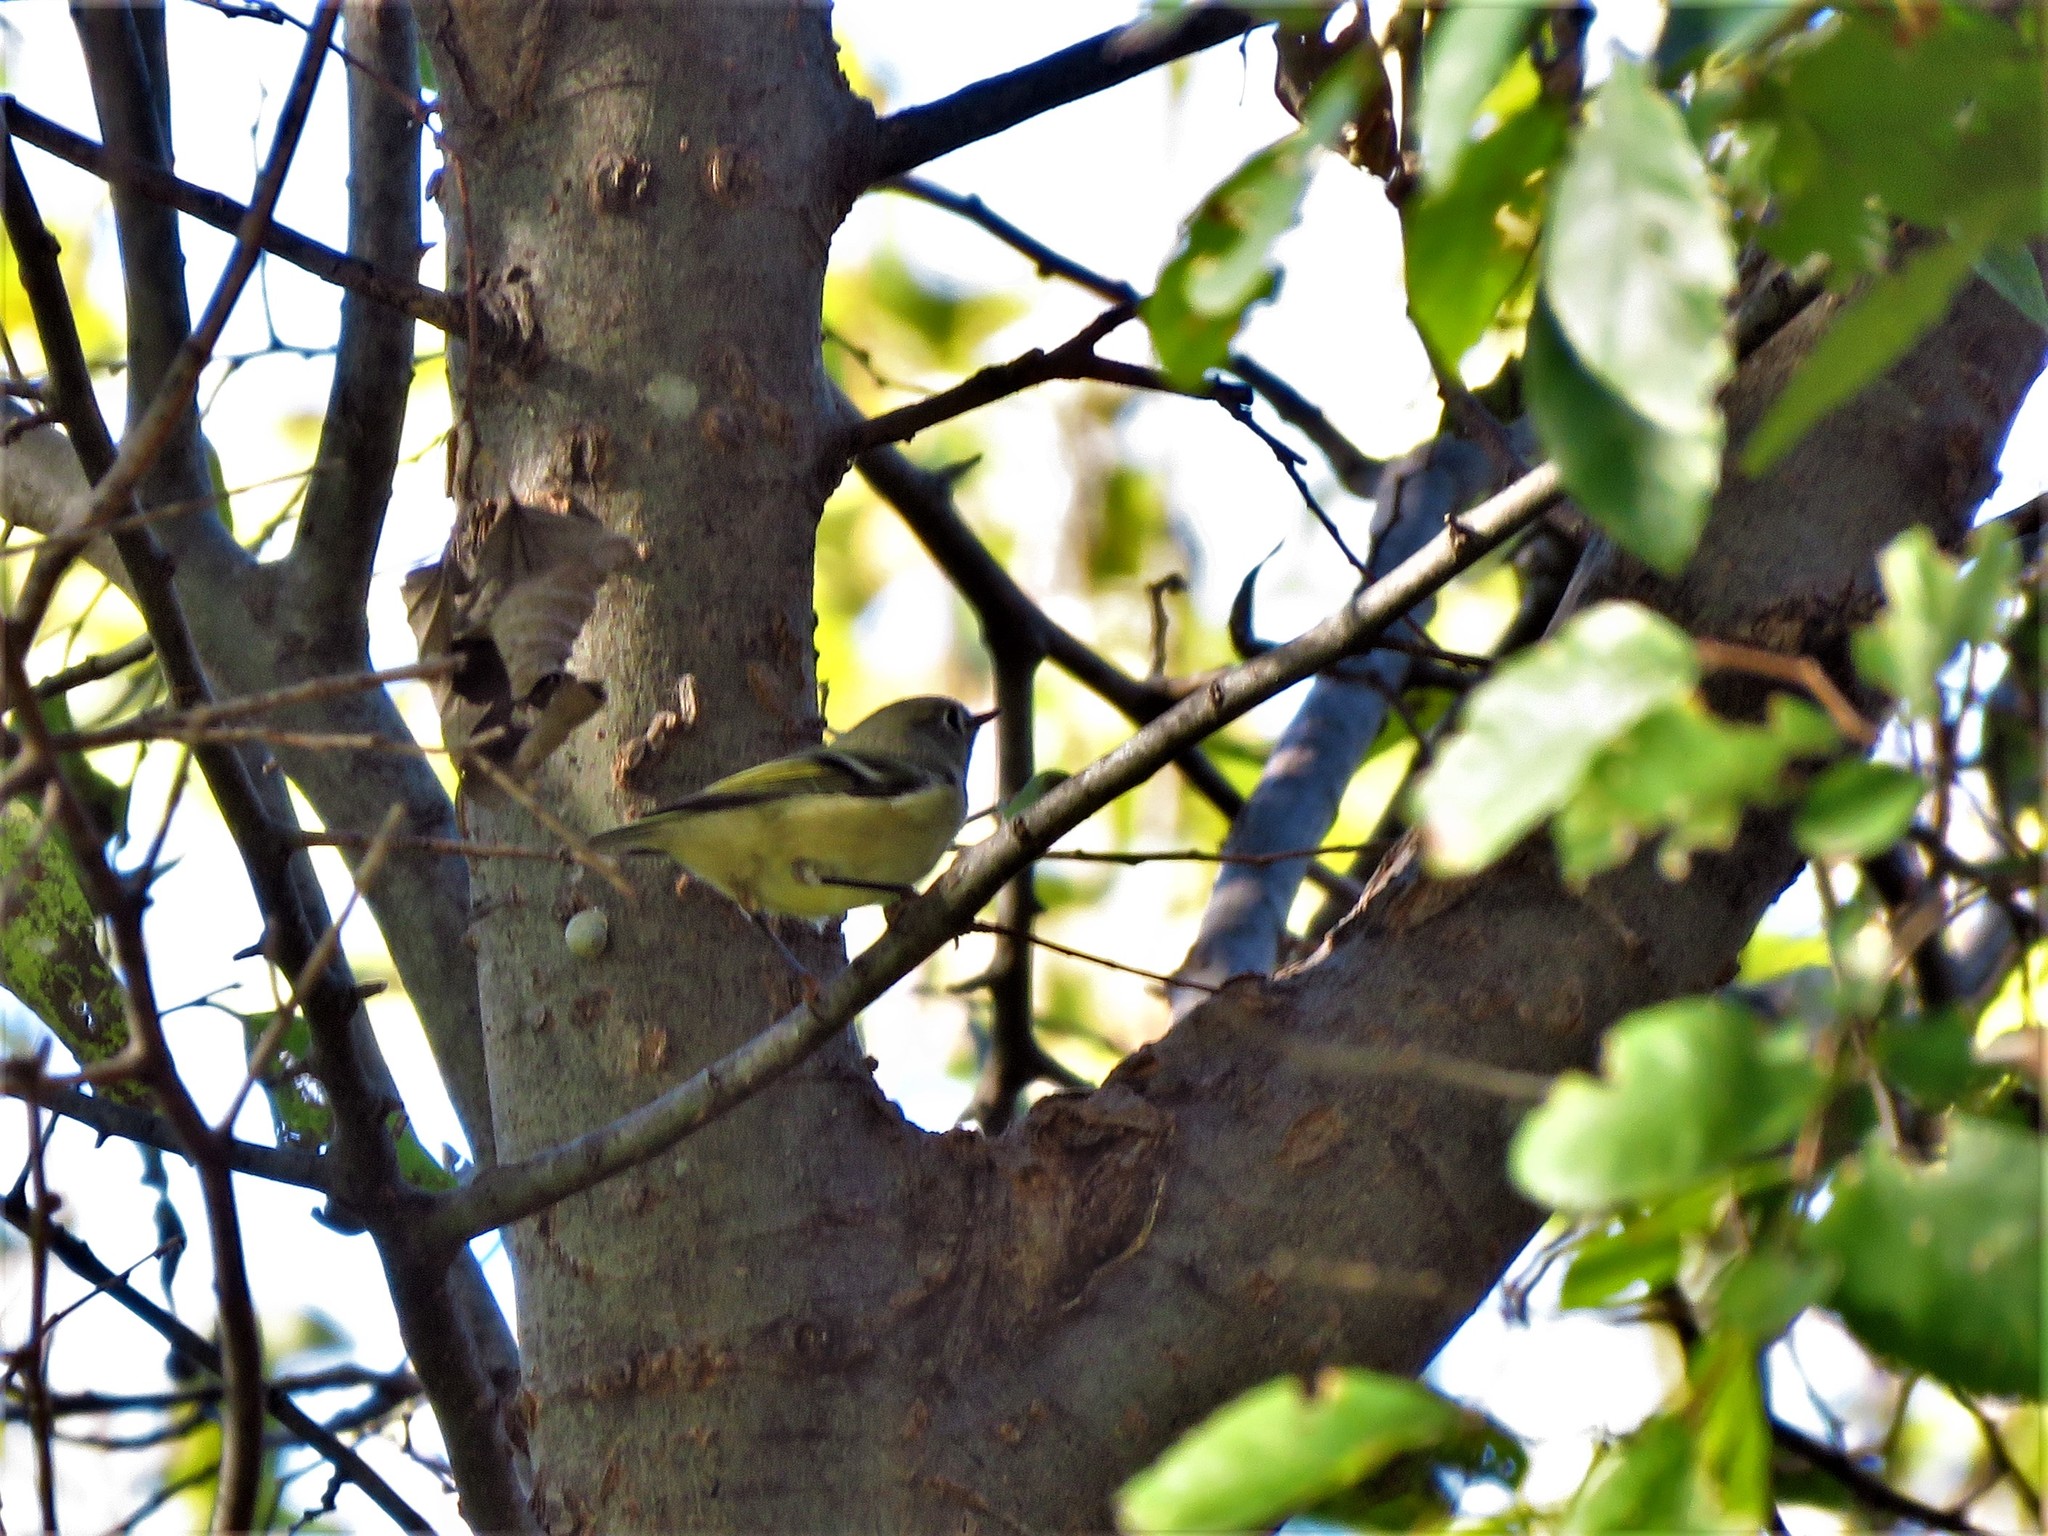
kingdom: Animalia
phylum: Chordata
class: Aves
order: Passeriformes
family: Regulidae
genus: Regulus
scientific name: Regulus calendula
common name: Ruby-crowned kinglet
